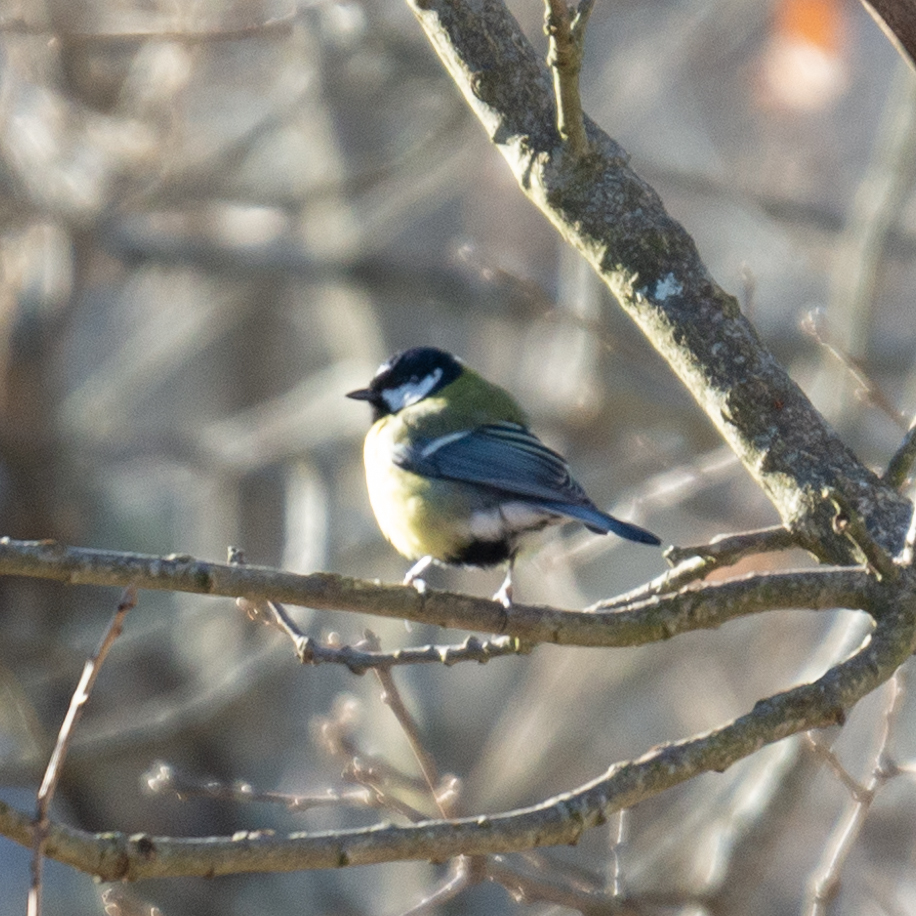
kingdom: Animalia
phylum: Chordata
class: Aves
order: Passeriformes
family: Paridae
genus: Parus
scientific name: Parus major
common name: Great tit
